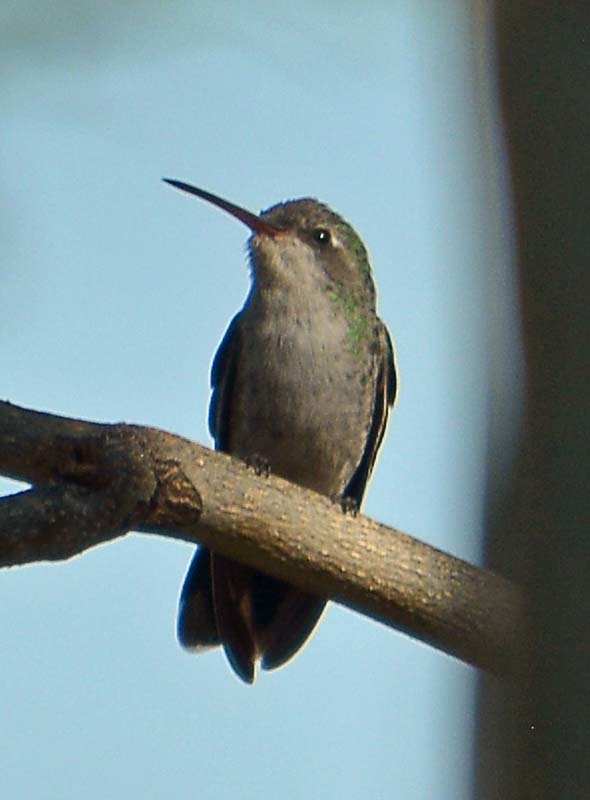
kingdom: Animalia
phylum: Chordata
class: Aves
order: Apodiformes
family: Trochilidae
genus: Cynanthus
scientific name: Cynanthus latirostris
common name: Broad-billed hummingbird
